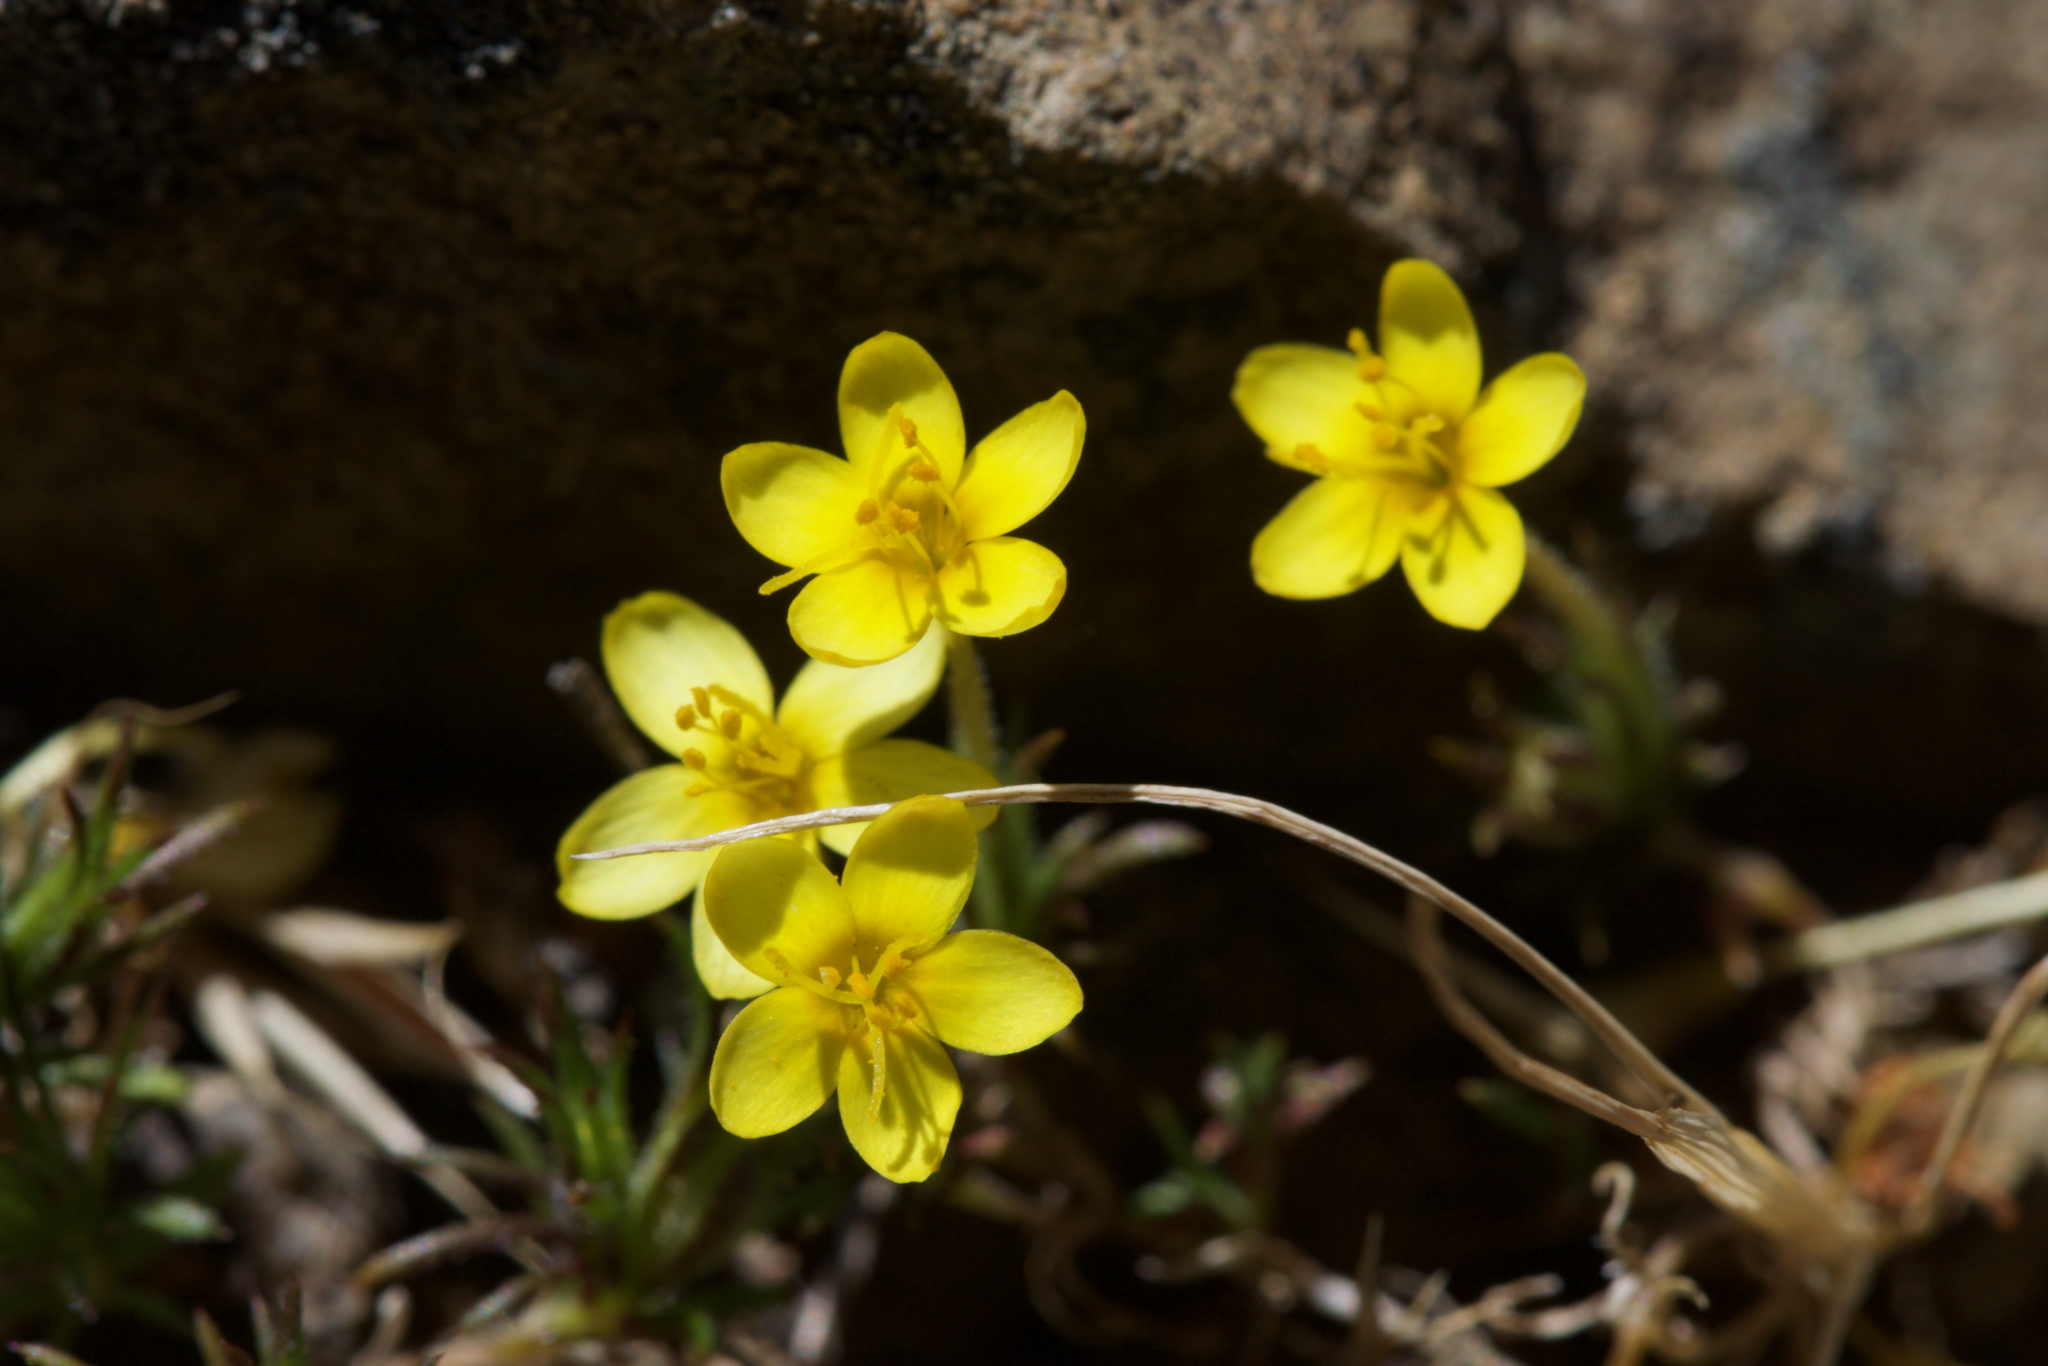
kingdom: Plantae
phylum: Tracheophyta
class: Magnoliopsida
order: Ericales
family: Polemoniaceae
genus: Leptosiphon
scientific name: Leptosiphon acicularis
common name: Bristly linanthus
